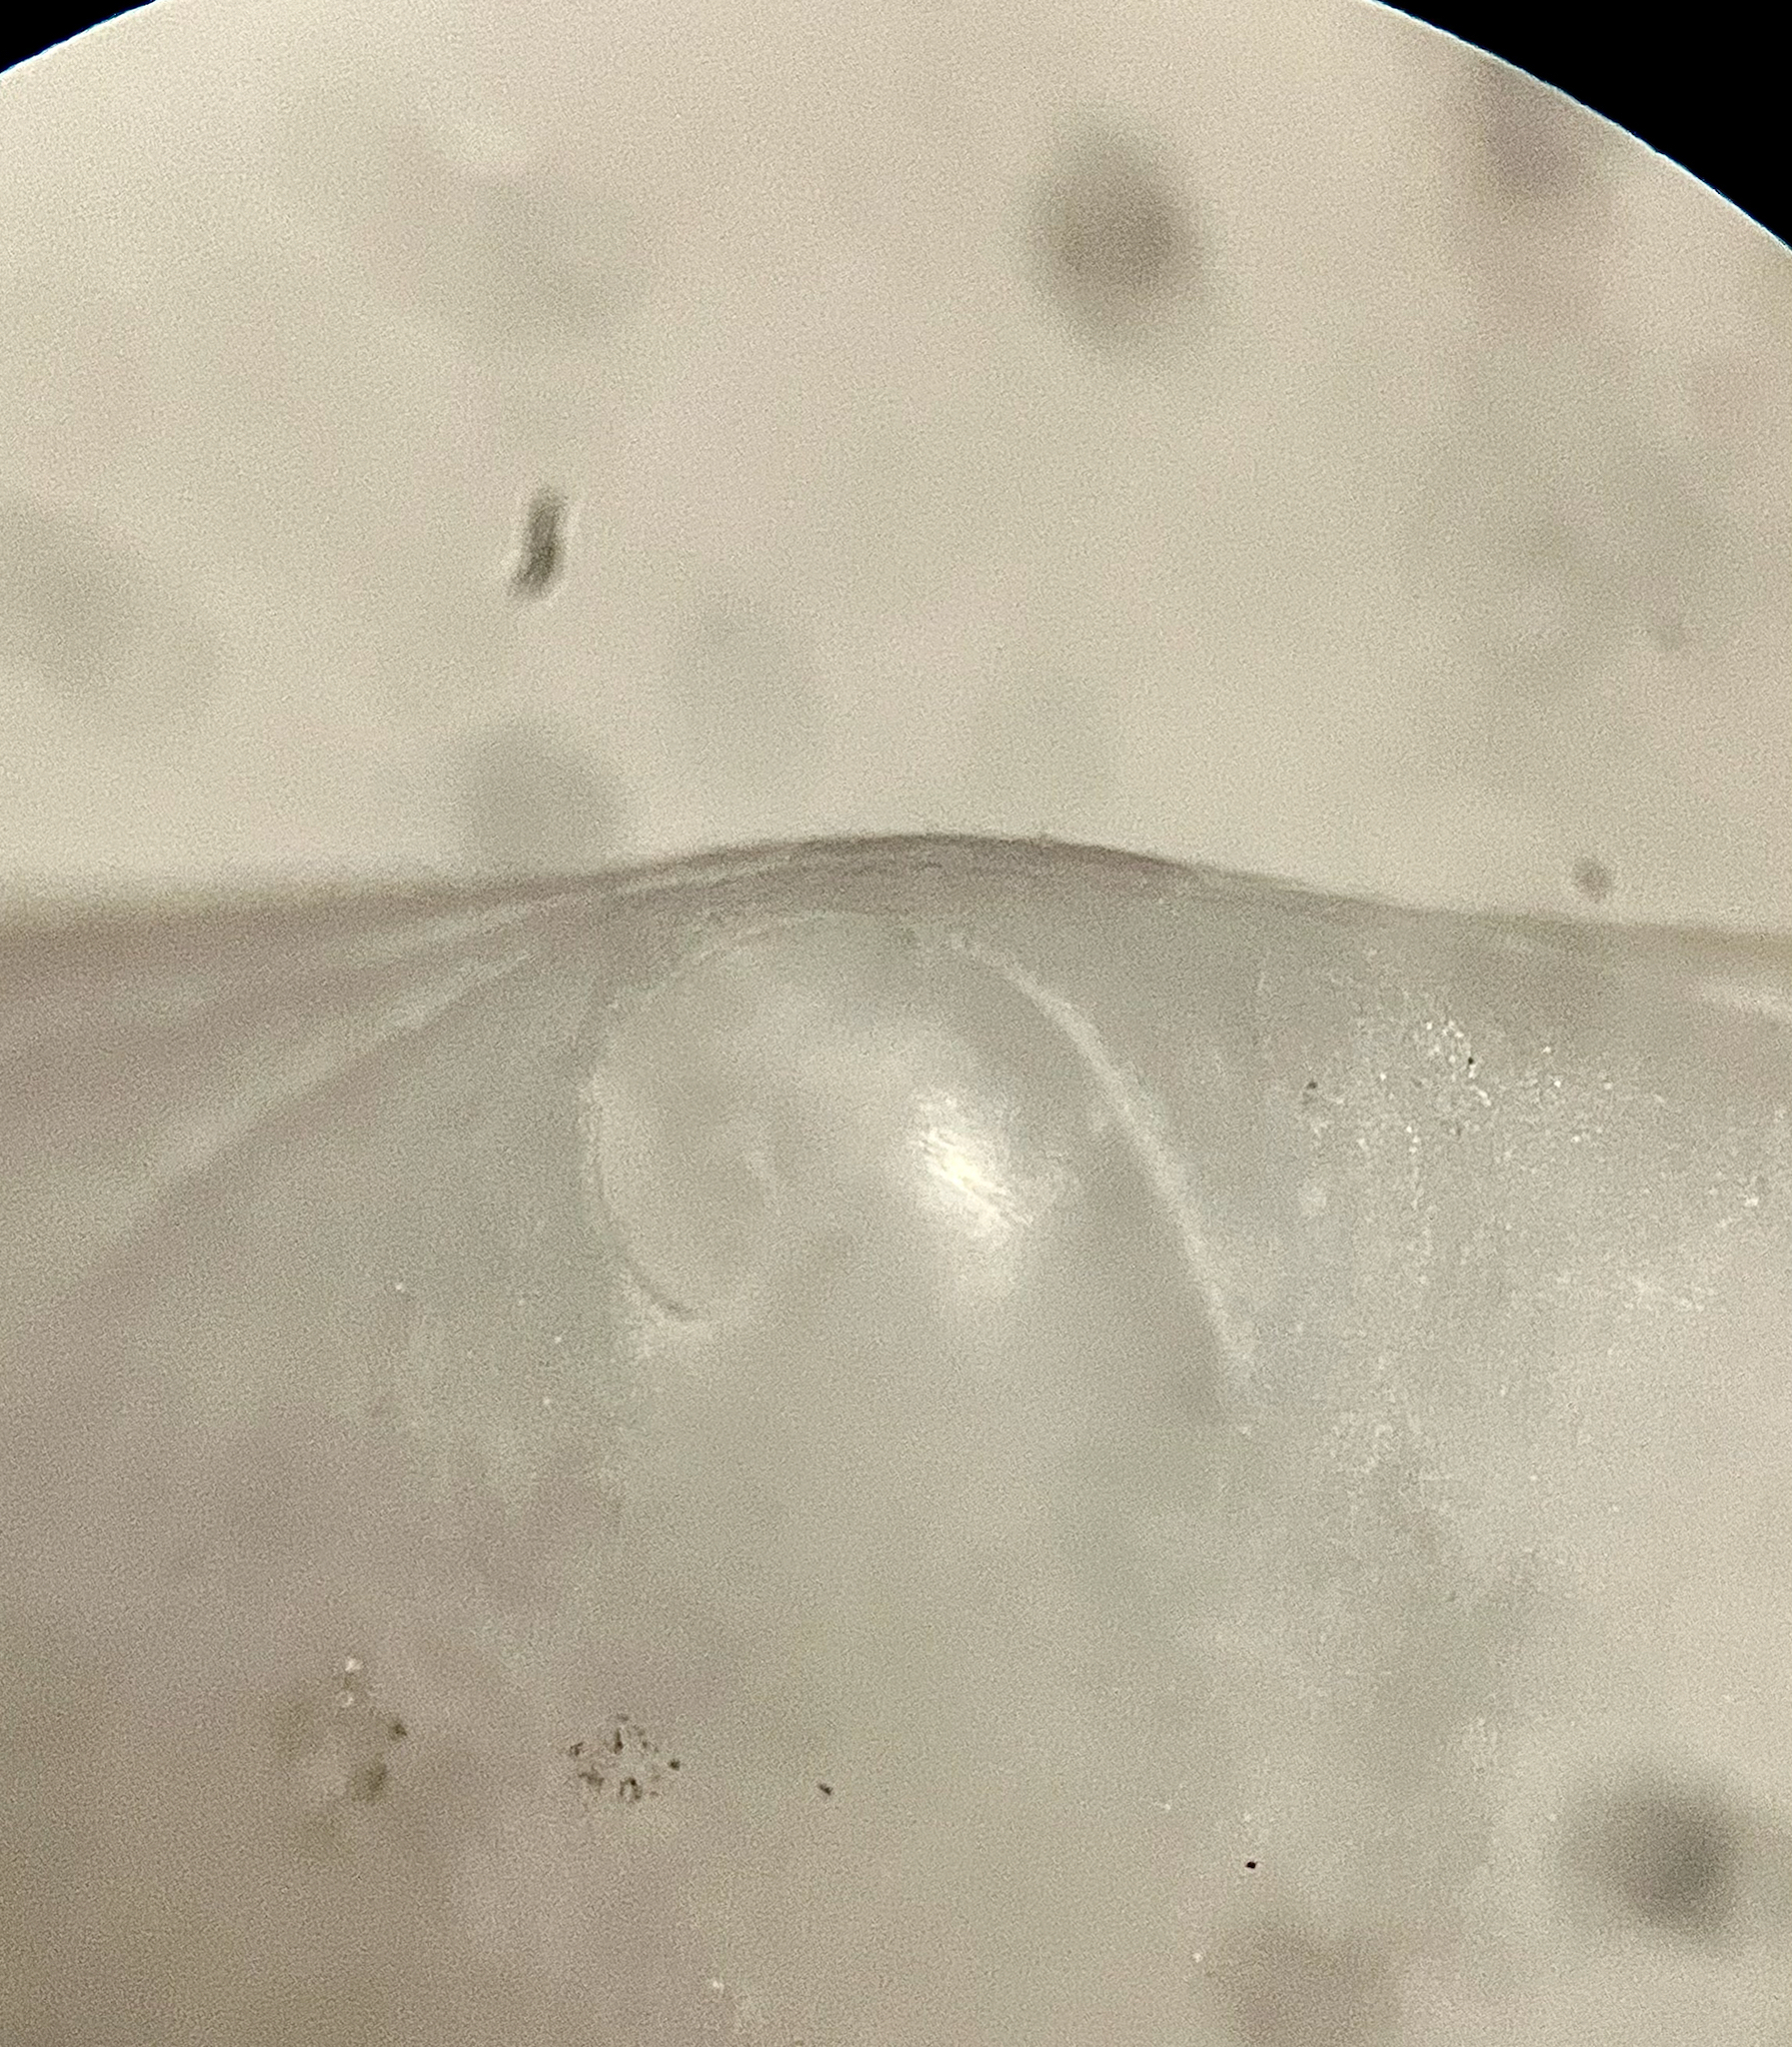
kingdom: Animalia
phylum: Mollusca
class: Gastropoda
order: Littorinimorpha
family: Calyptraeidae
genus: Crepidula
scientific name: Crepidula depressa
